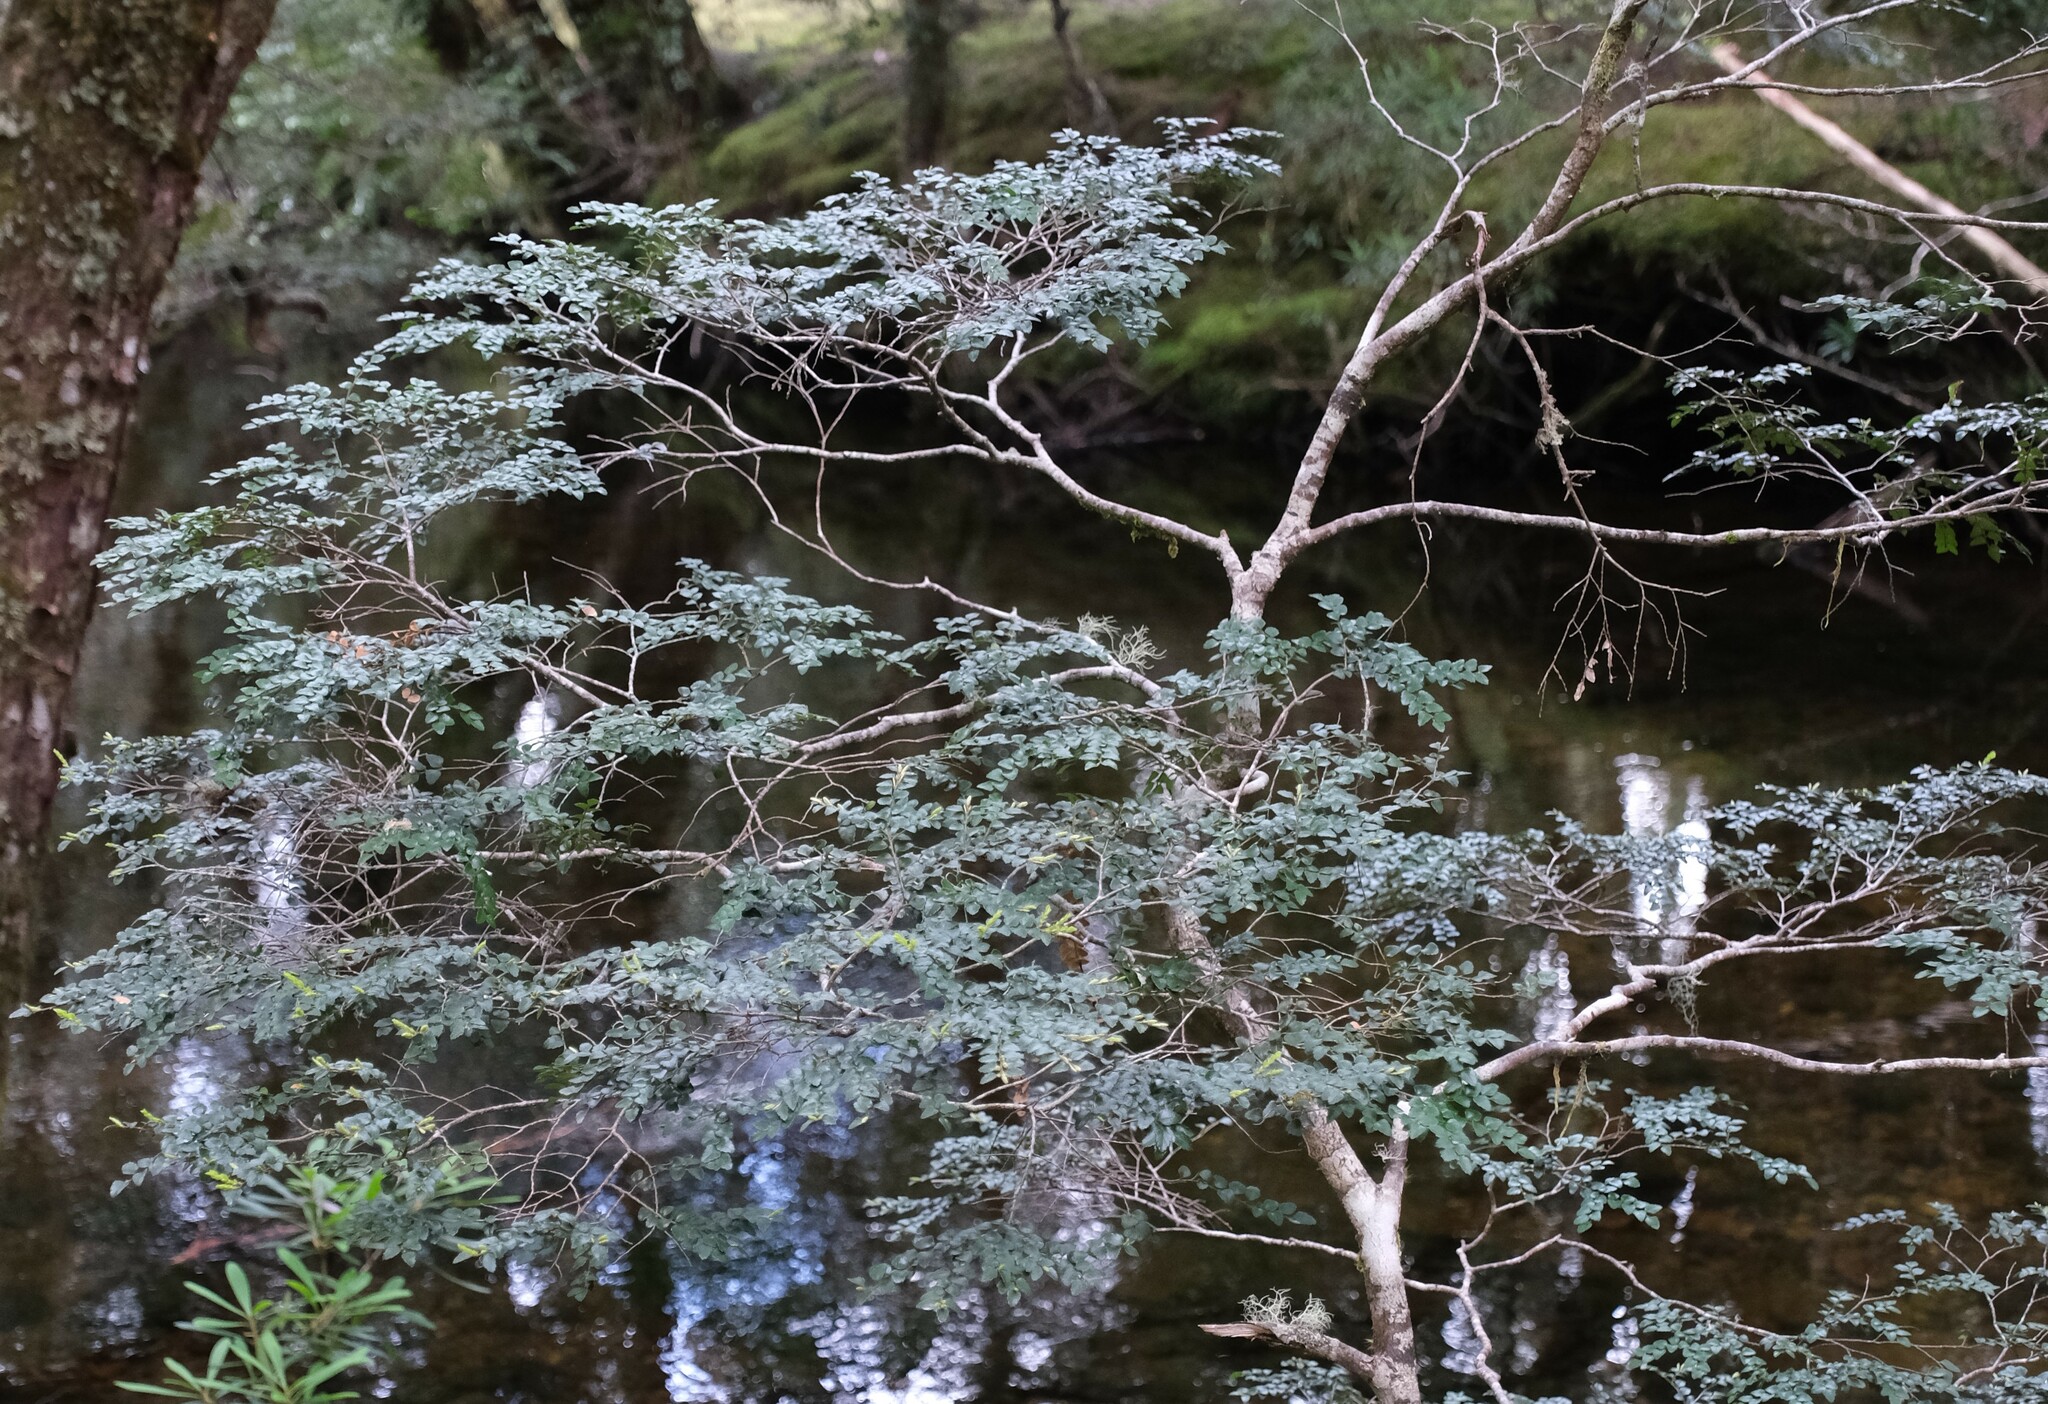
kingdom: Plantae
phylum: Tracheophyta
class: Magnoliopsida
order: Fagales
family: Nothofagaceae
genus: Nothofagus
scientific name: Nothofagus cunninghamii
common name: Myrtle beech
